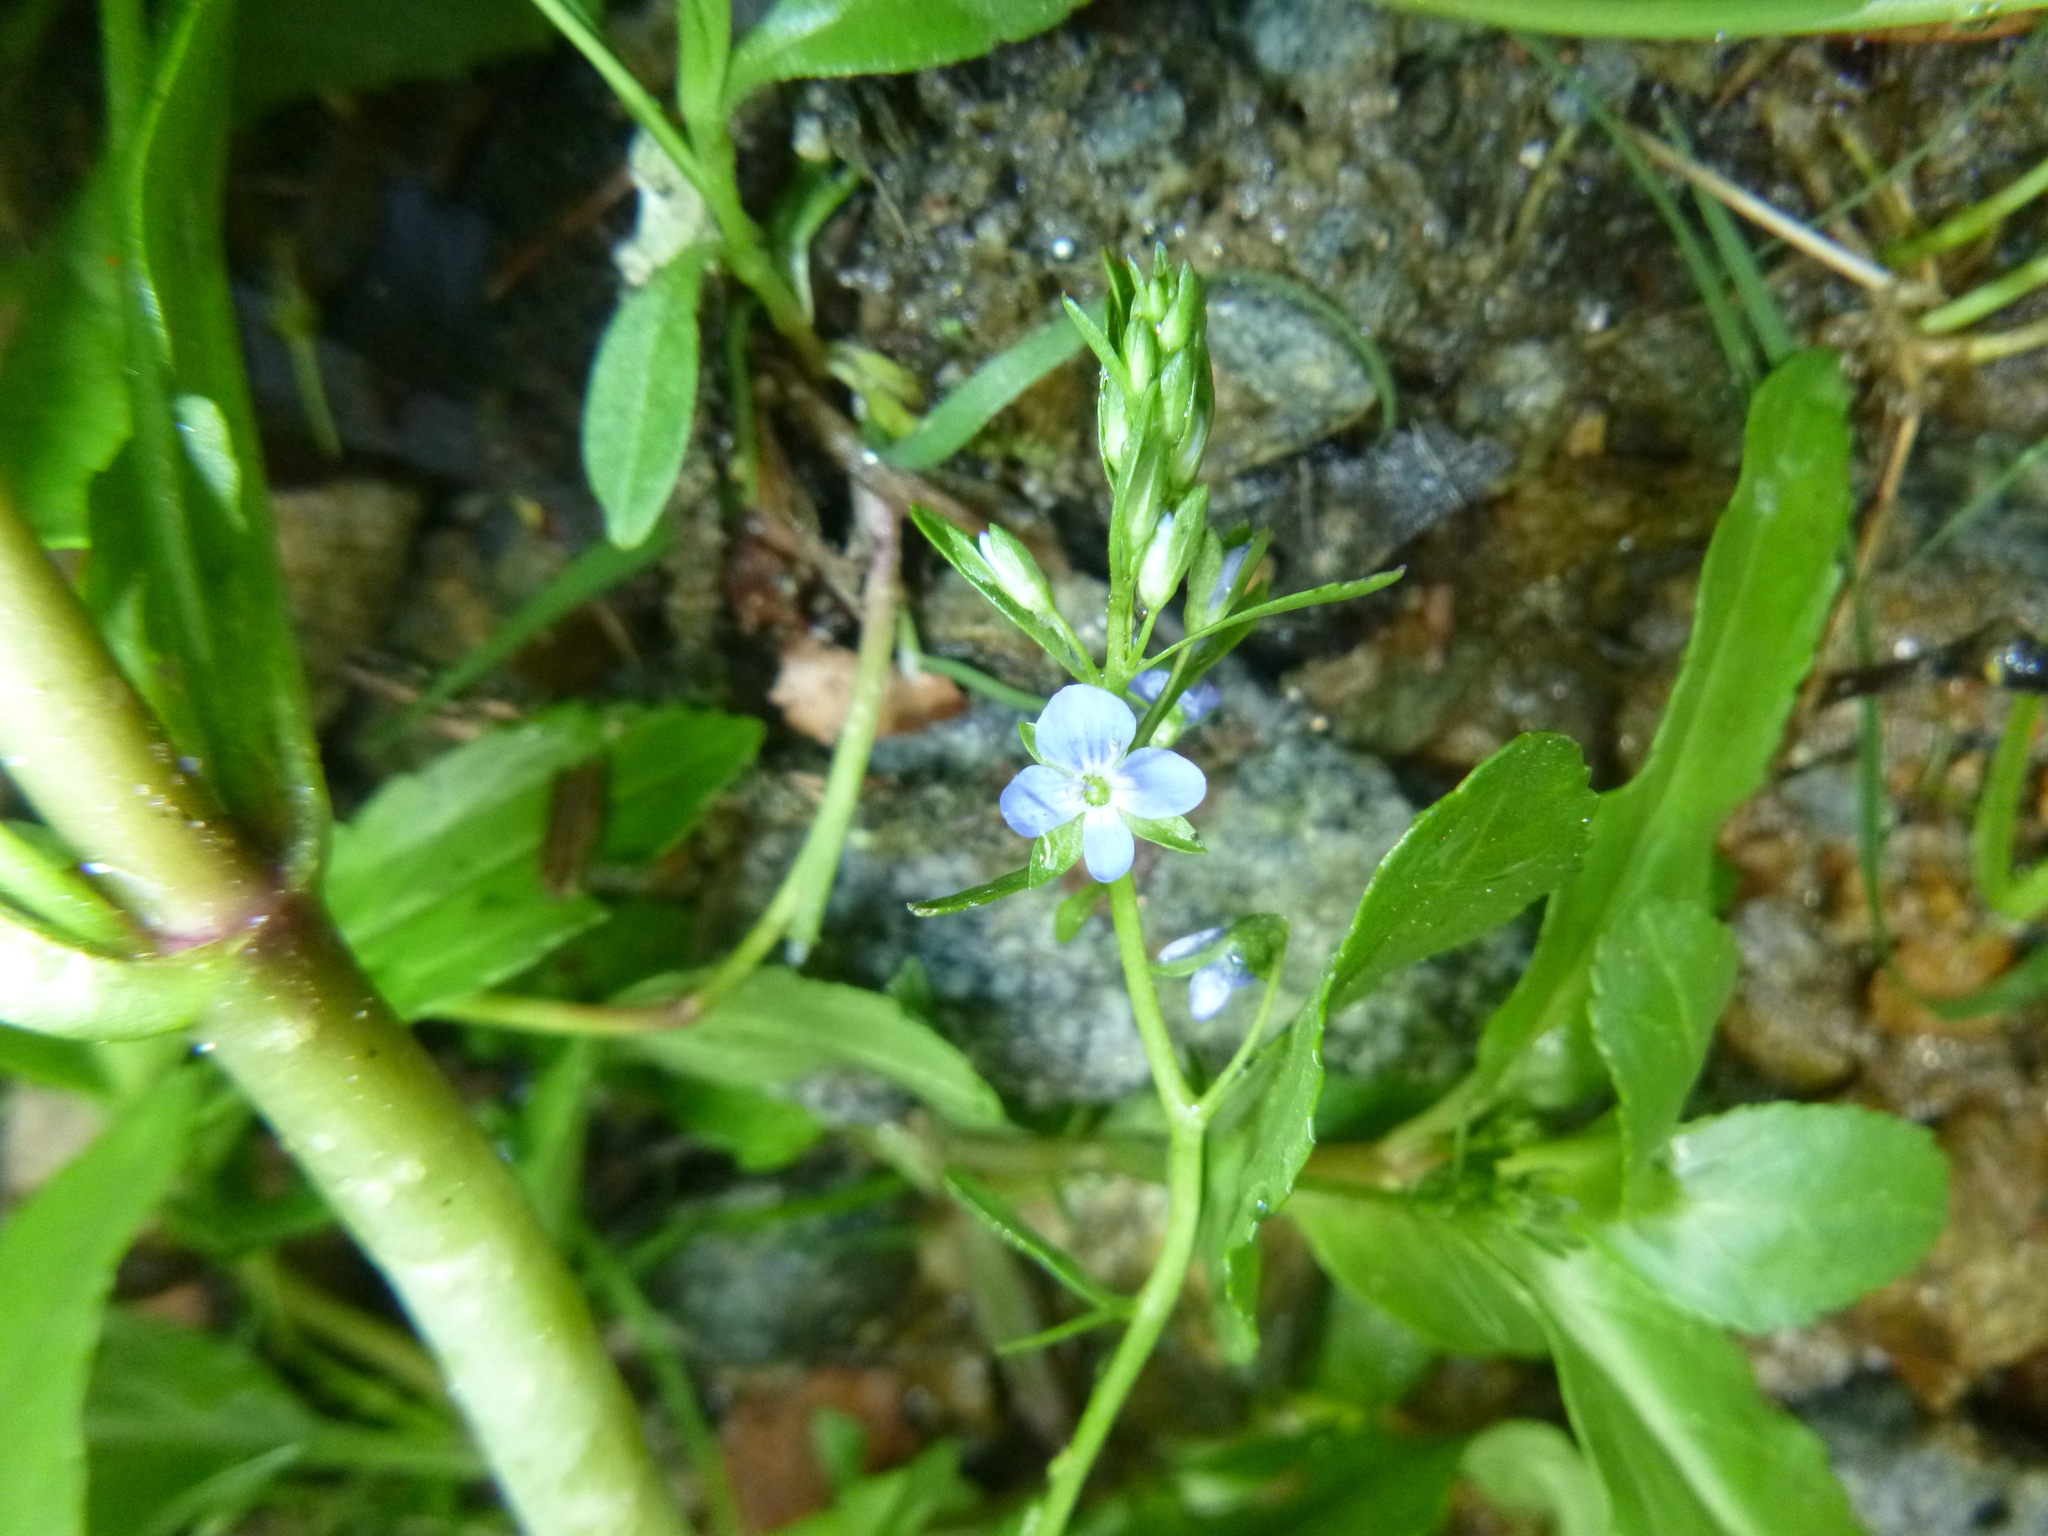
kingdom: Plantae
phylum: Tracheophyta
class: Magnoliopsida
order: Lamiales
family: Plantaginaceae
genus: Veronica
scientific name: Veronica beccabunga
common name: Brooklime
